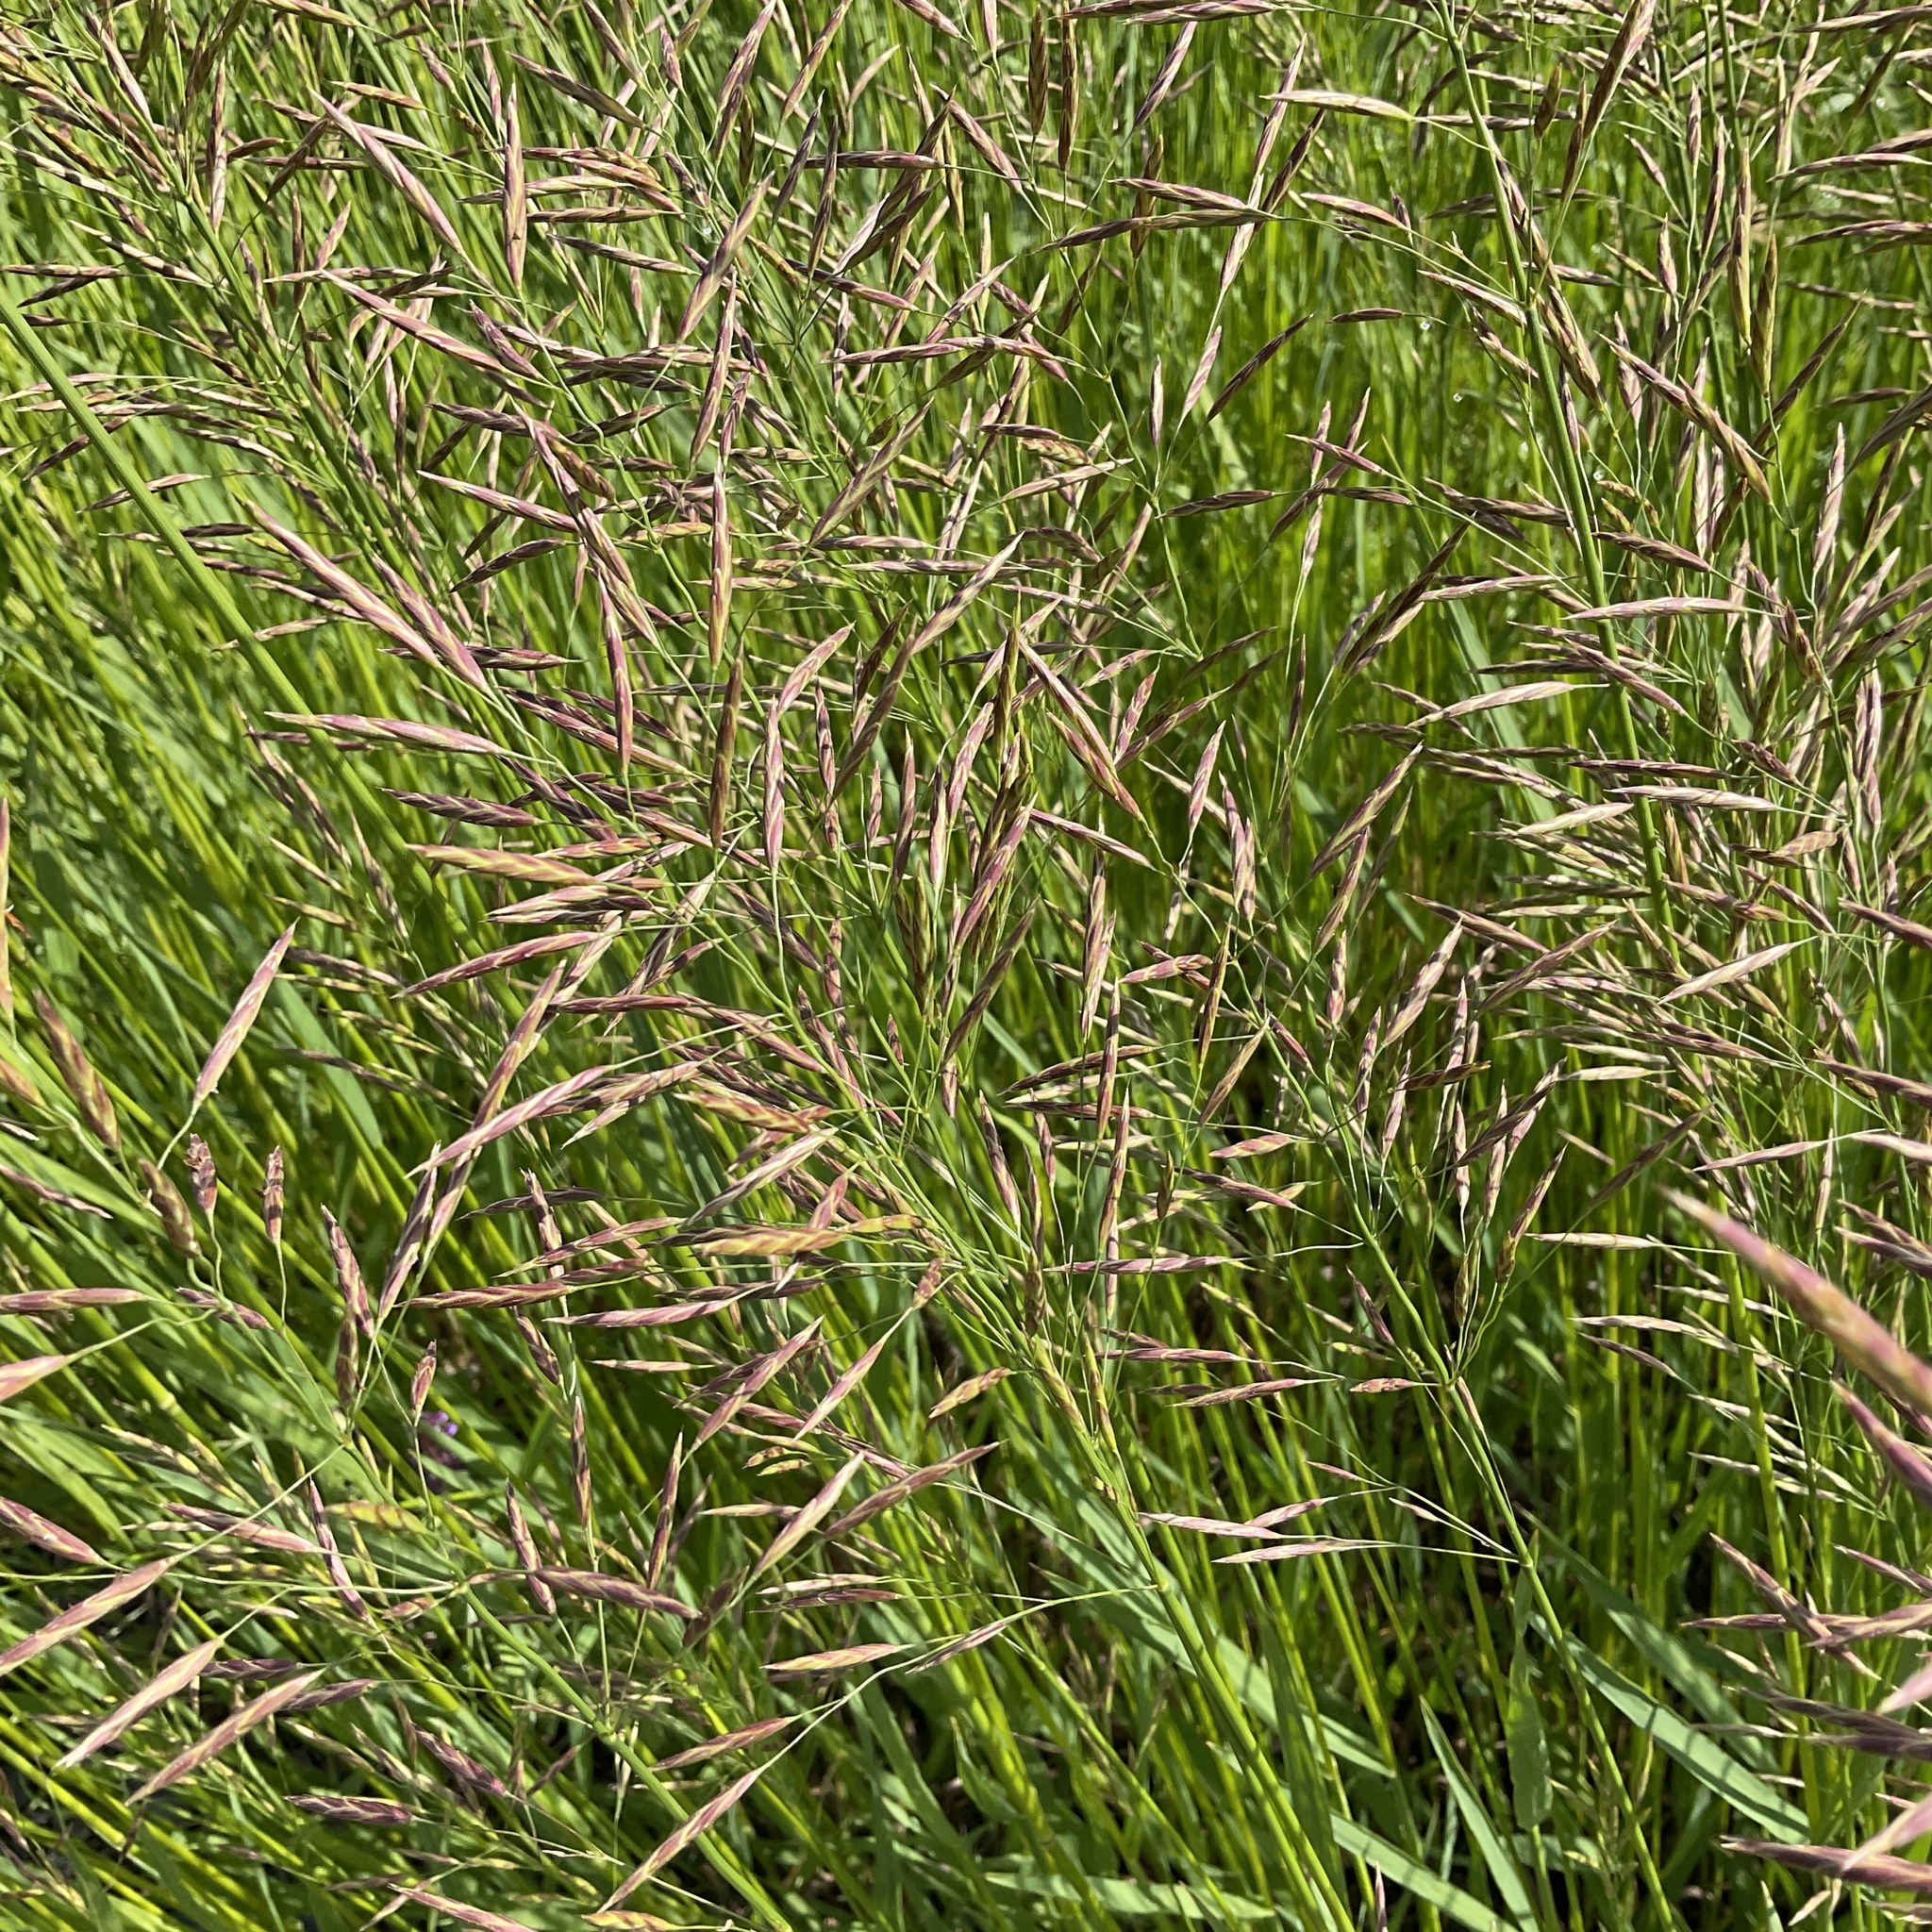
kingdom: Plantae
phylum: Tracheophyta
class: Liliopsida
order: Poales
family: Poaceae
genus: Bromus
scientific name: Bromus inermis
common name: Smooth brome
